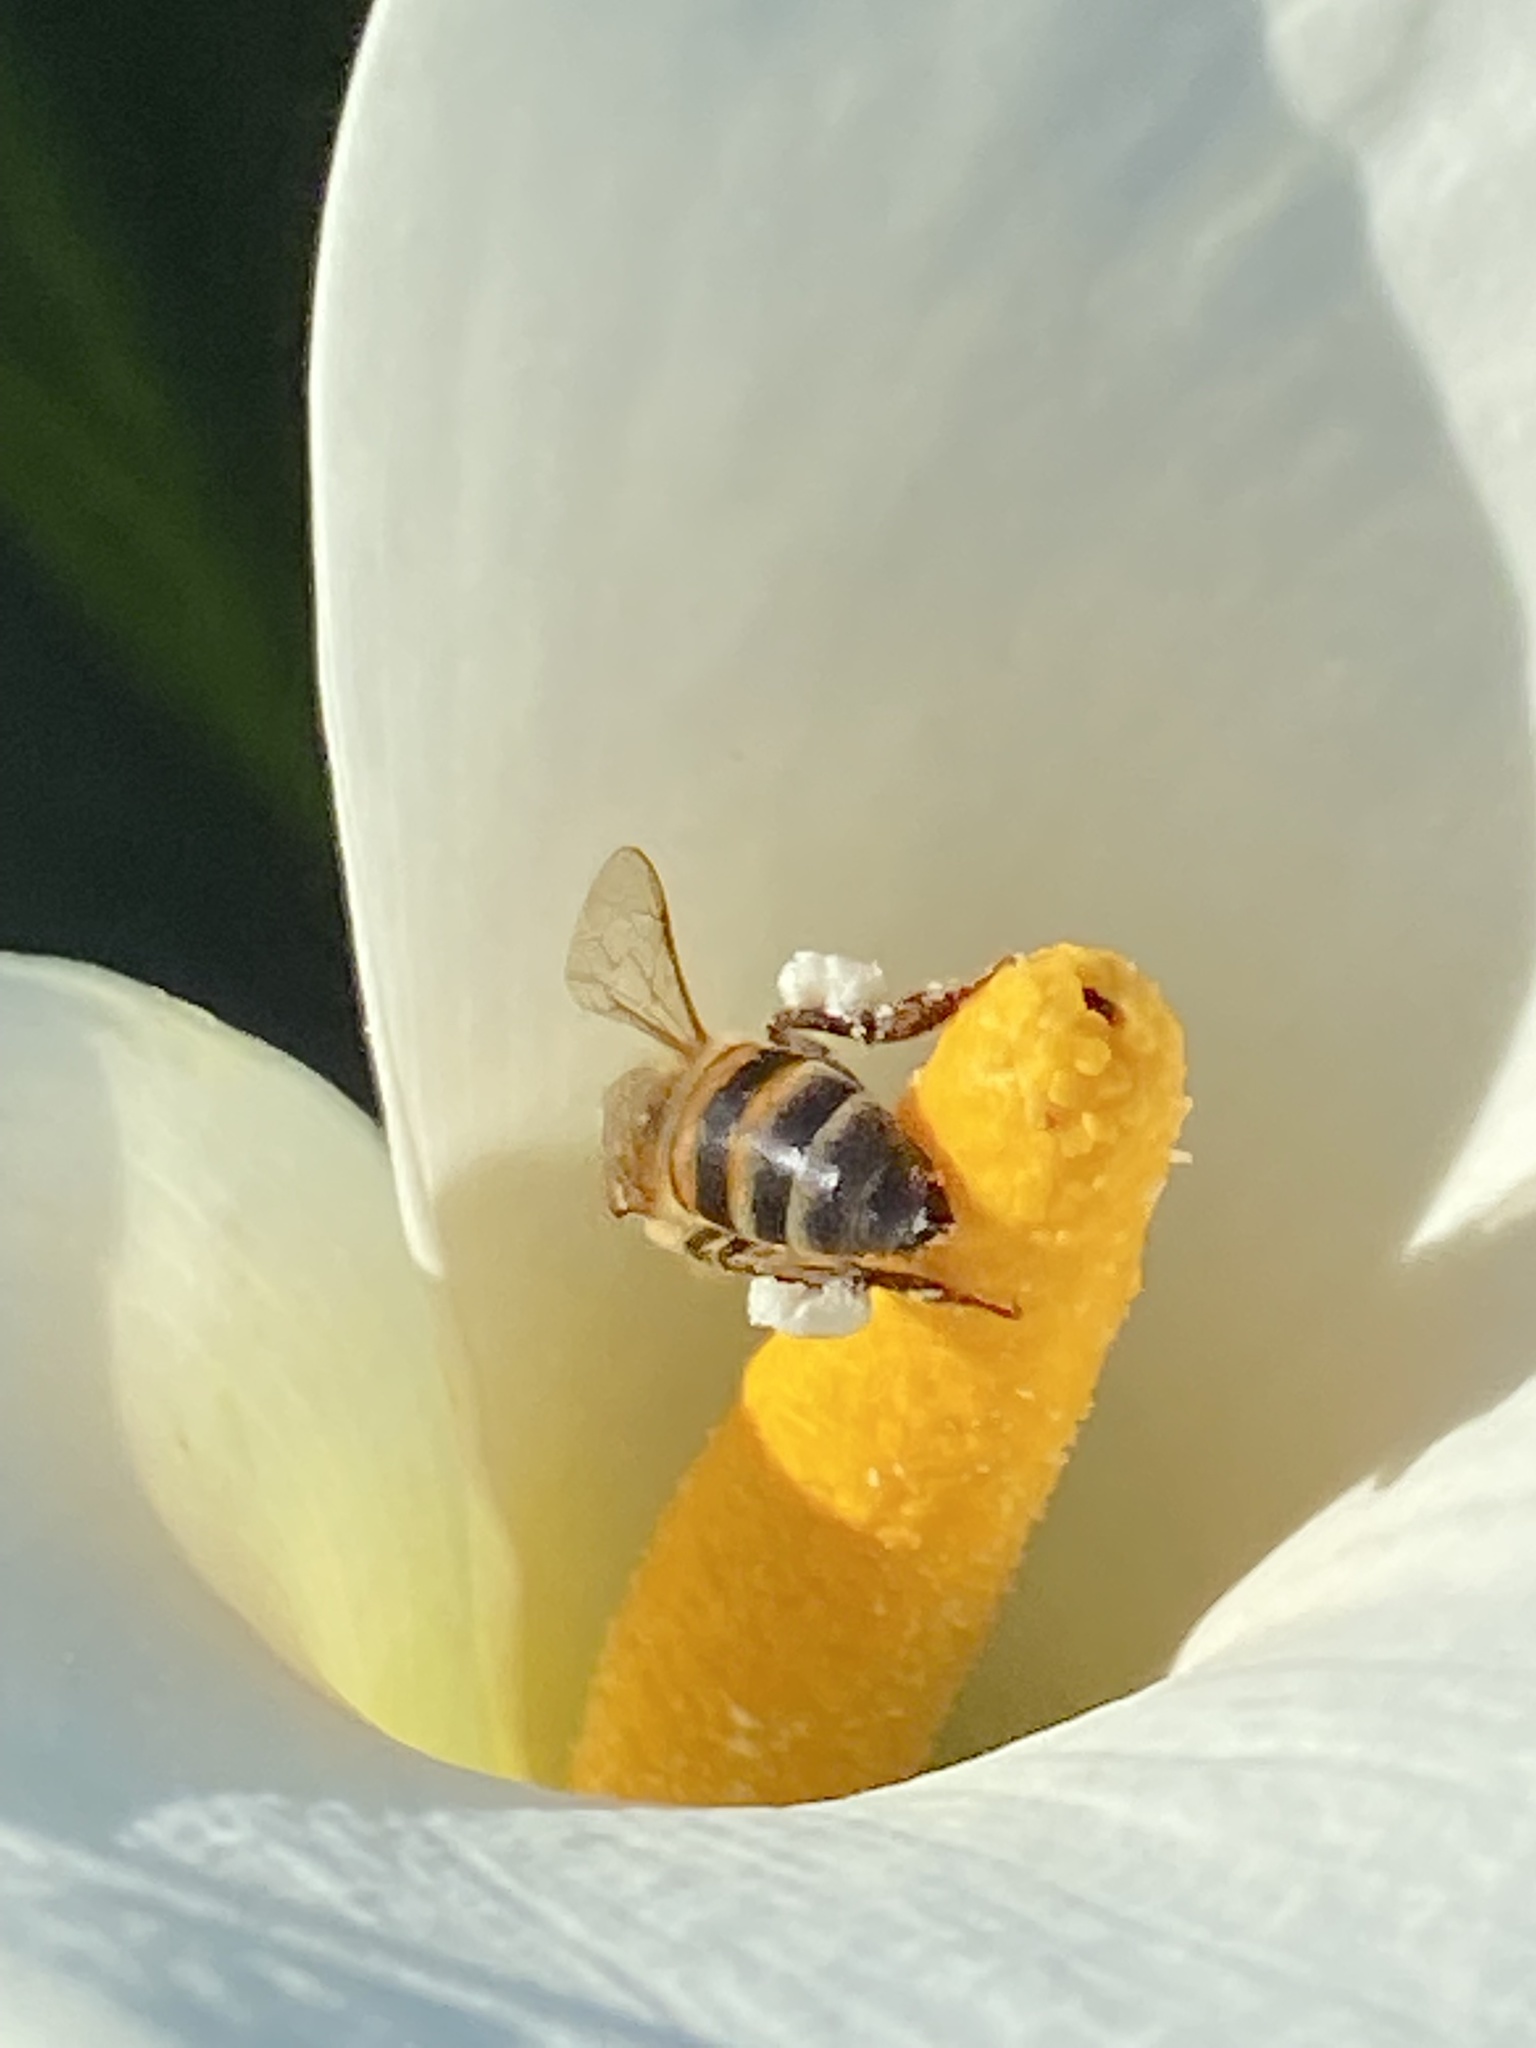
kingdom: Animalia
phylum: Arthropoda
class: Insecta
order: Hymenoptera
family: Apidae
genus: Apis
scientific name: Apis mellifera
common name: Honey bee
